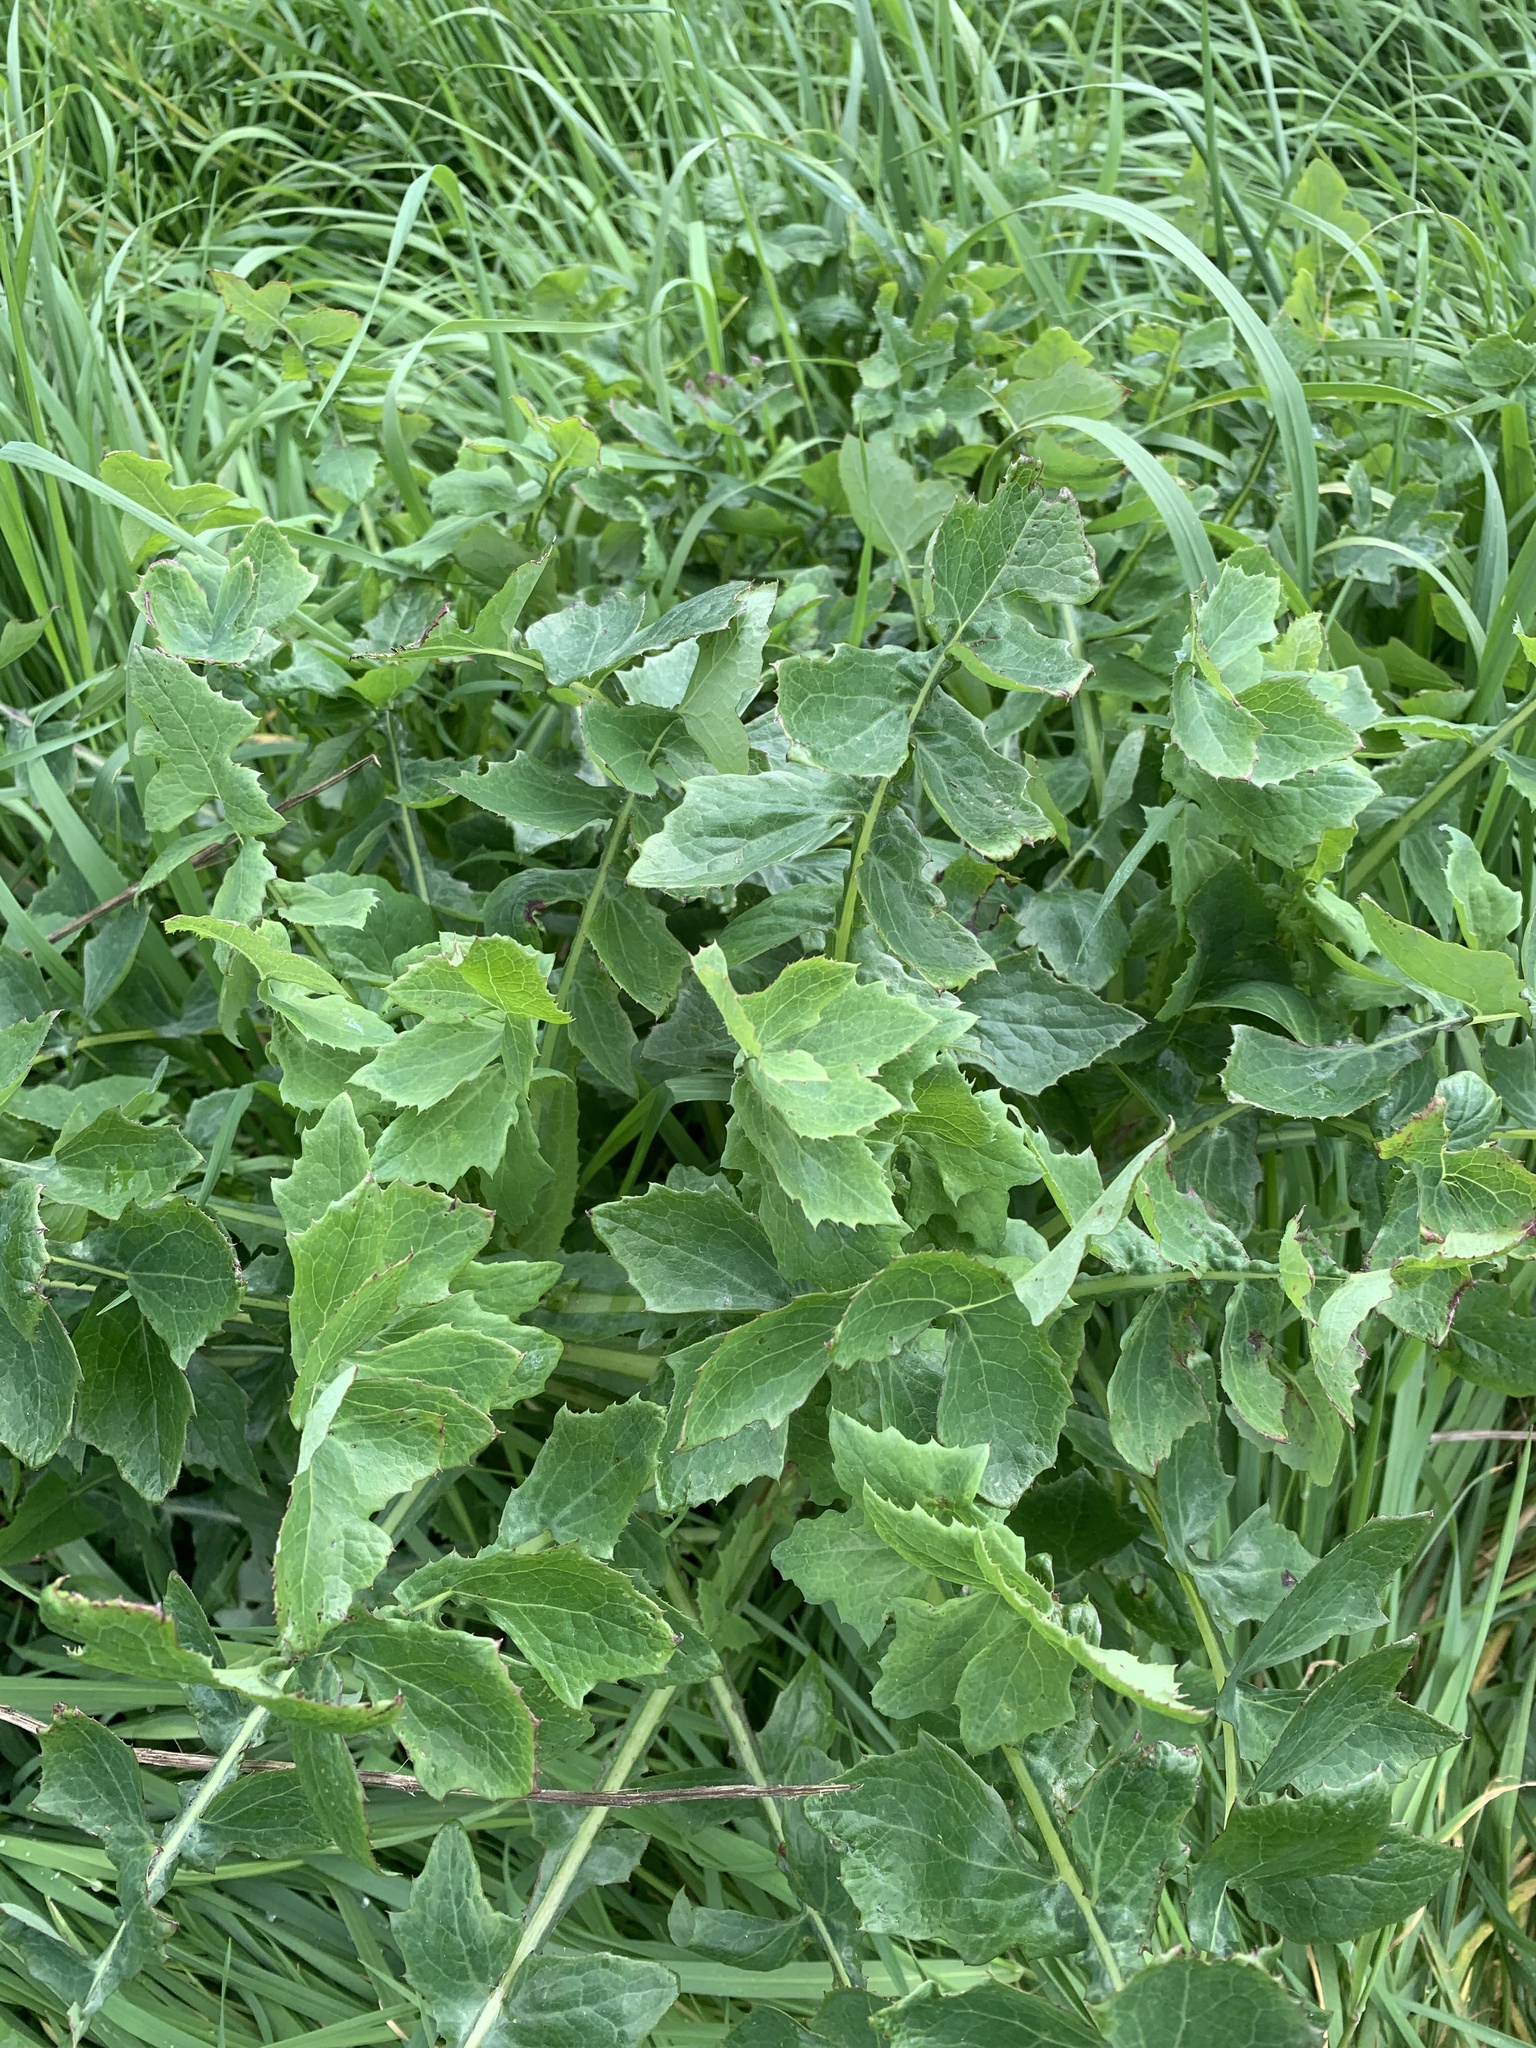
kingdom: Plantae
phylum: Tracheophyta
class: Magnoliopsida
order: Apiales
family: Apiaceae
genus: Heracleum
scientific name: Heracleum sphondylium
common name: Hogweed
